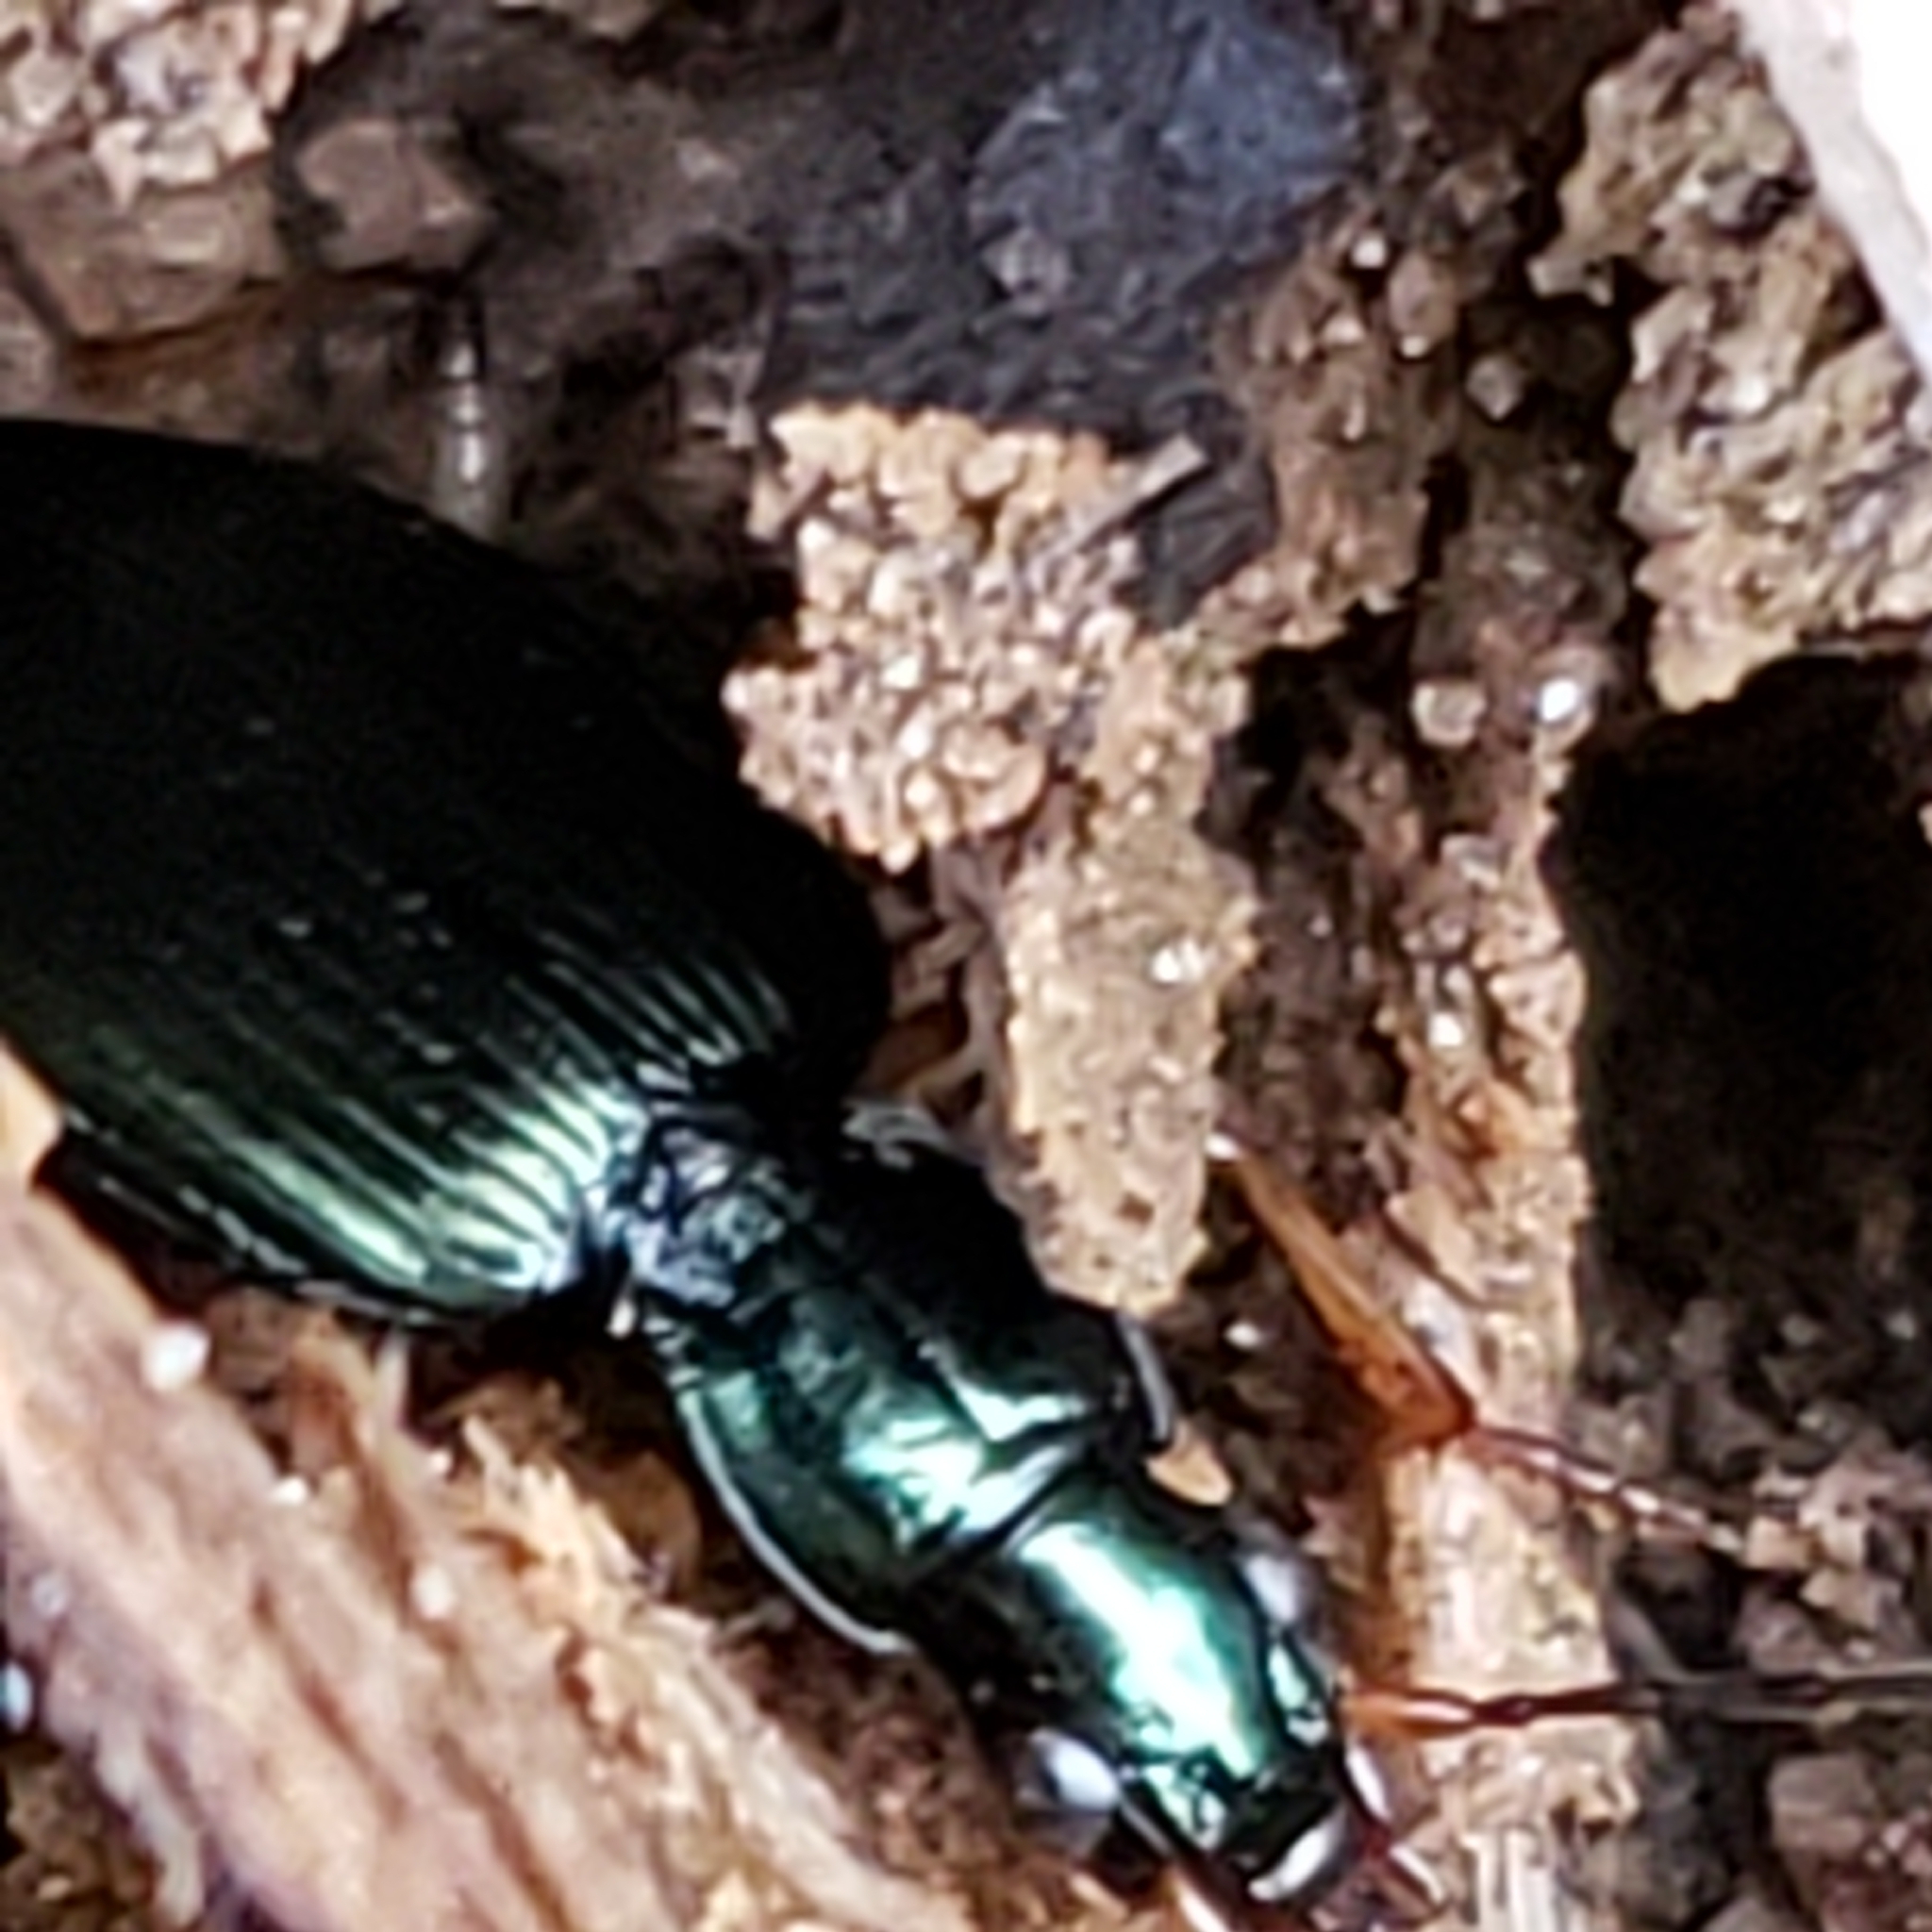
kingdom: Animalia
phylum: Arthropoda
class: Insecta
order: Coleoptera
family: Carabidae
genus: Agonum
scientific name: Agonum extensicolle
